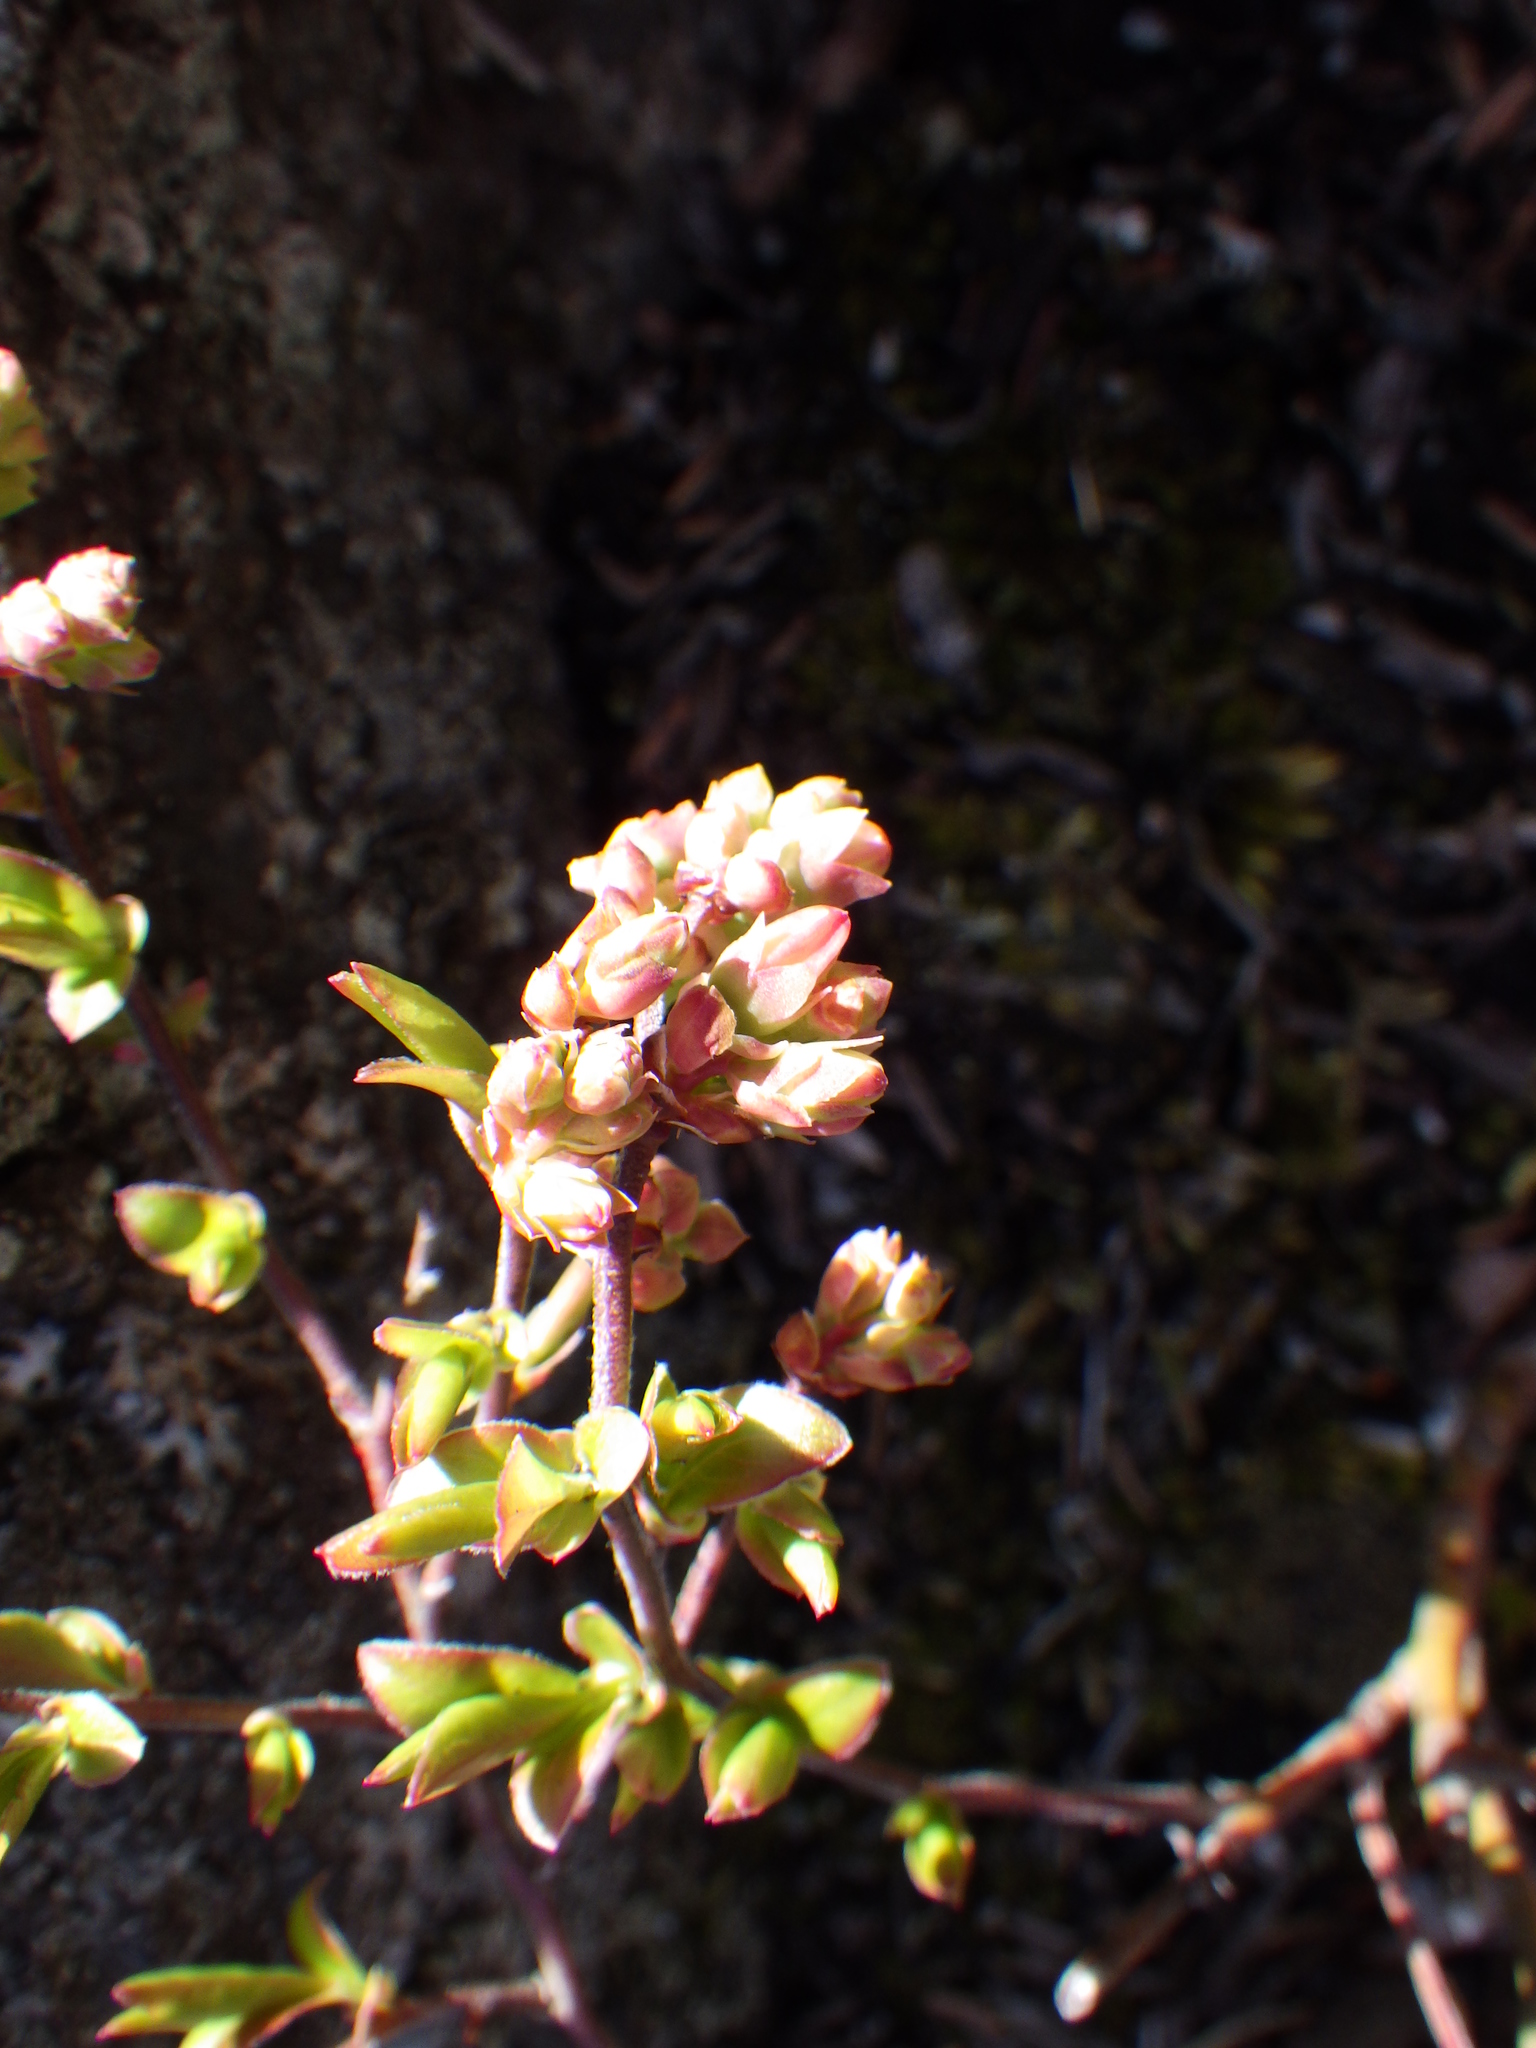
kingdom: Plantae
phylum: Tracheophyta
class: Magnoliopsida
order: Ericales
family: Ericaceae
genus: Vaccinium
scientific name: Vaccinium angustifolium
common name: Early lowbush blueberry
